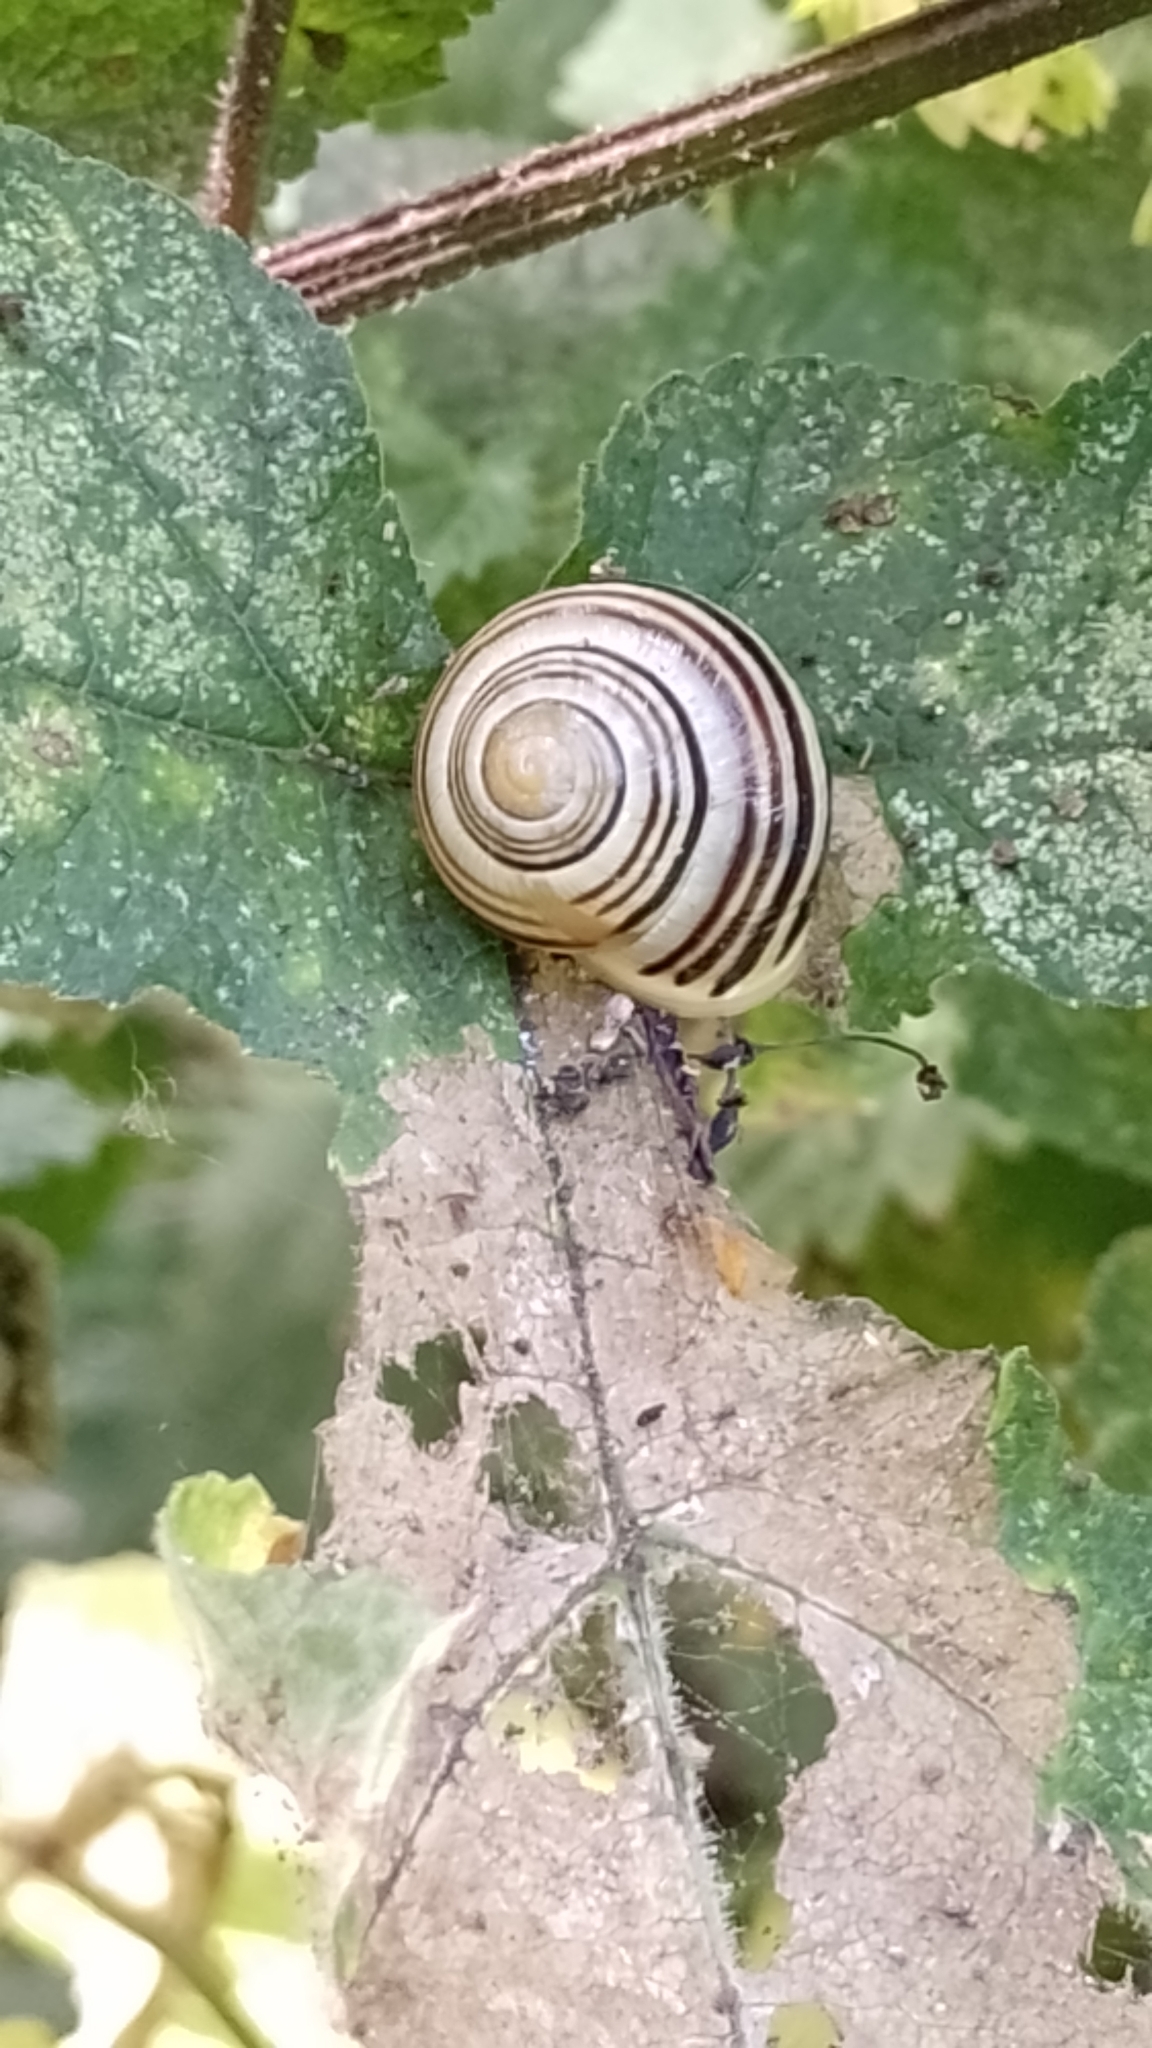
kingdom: Animalia
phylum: Mollusca
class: Gastropoda
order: Stylommatophora
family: Helicidae
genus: Cepaea
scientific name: Cepaea hortensis
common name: White-lip gardensnail
